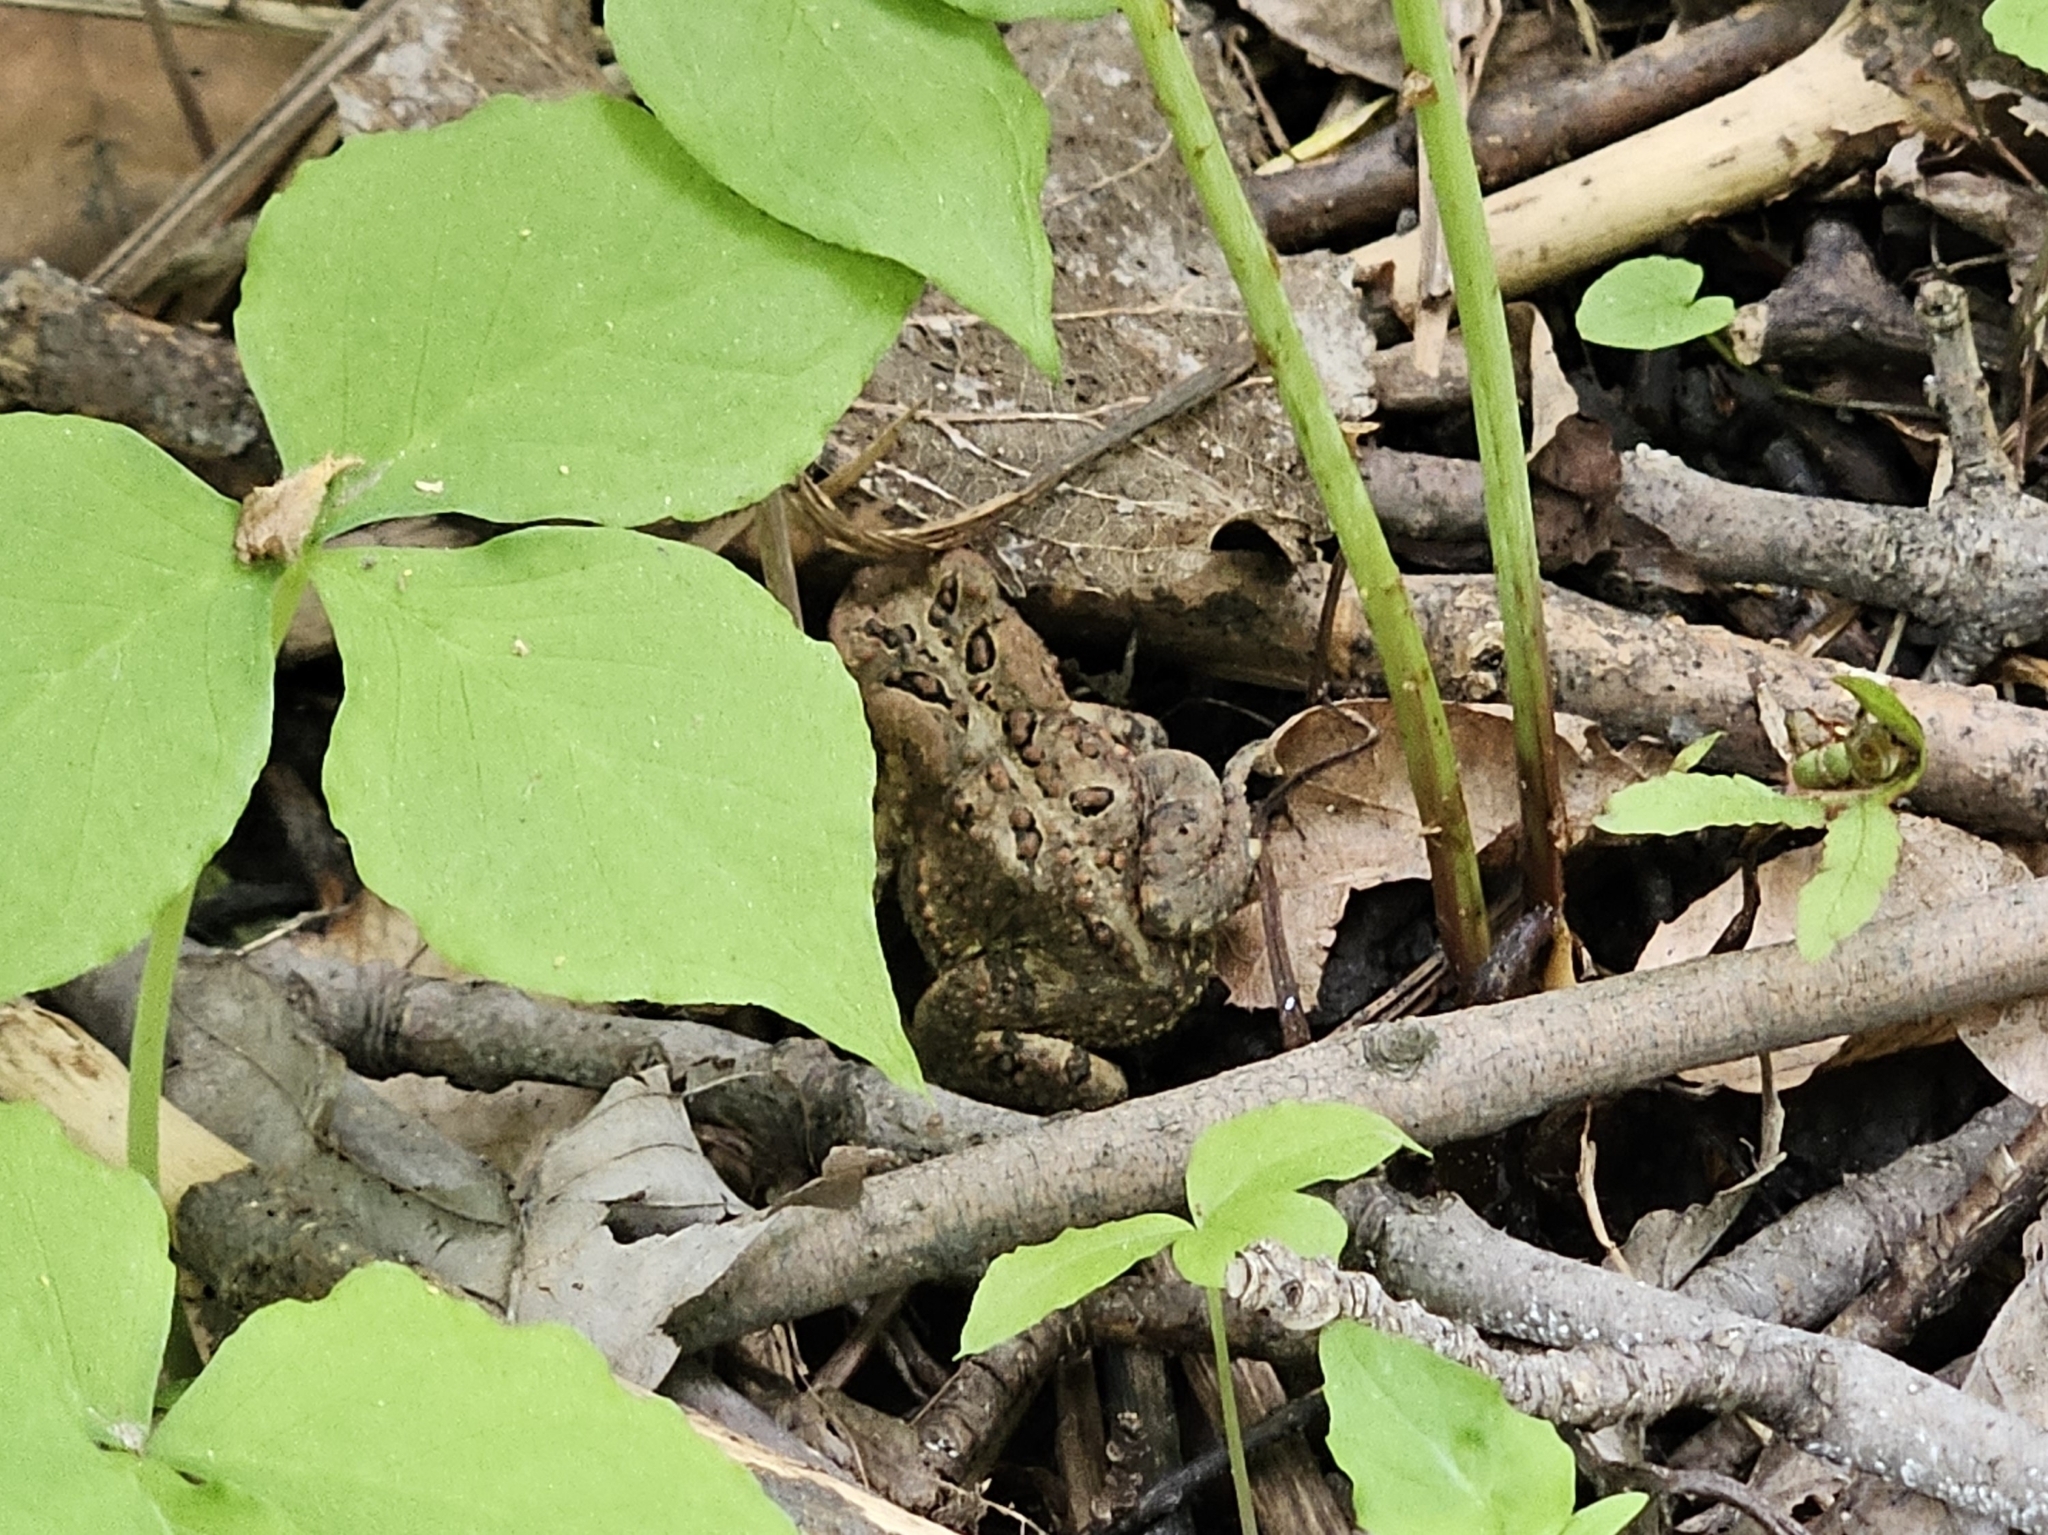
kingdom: Animalia
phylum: Chordata
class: Amphibia
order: Anura
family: Bufonidae
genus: Anaxyrus
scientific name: Anaxyrus americanus
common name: American toad
